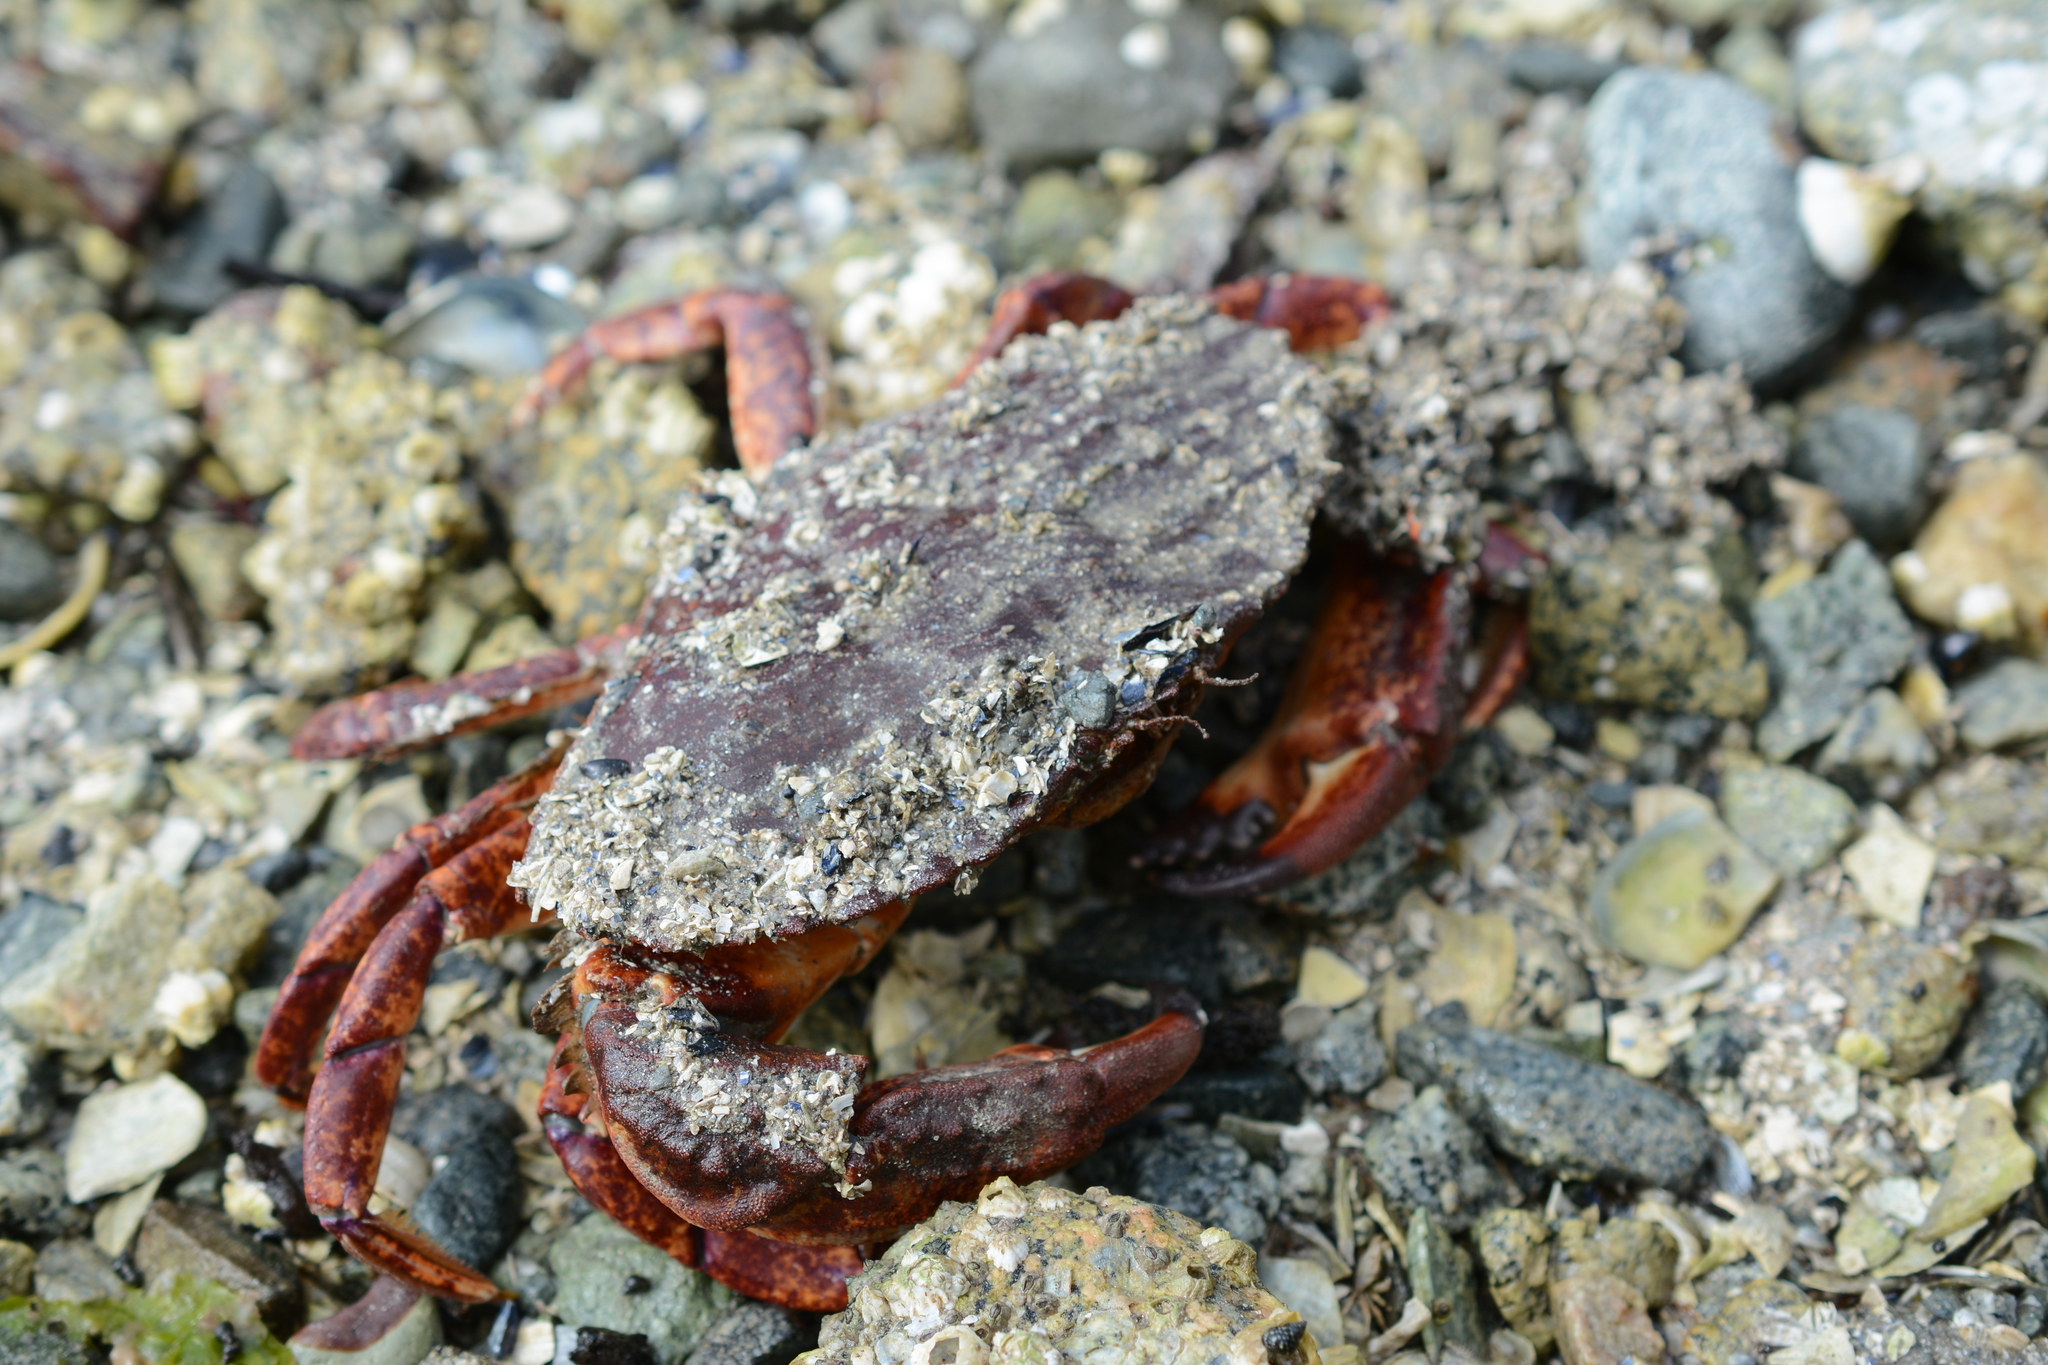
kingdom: Animalia
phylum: Arthropoda
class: Malacostraca
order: Decapoda
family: Cancridae
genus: Cancer
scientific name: Cancer productus
